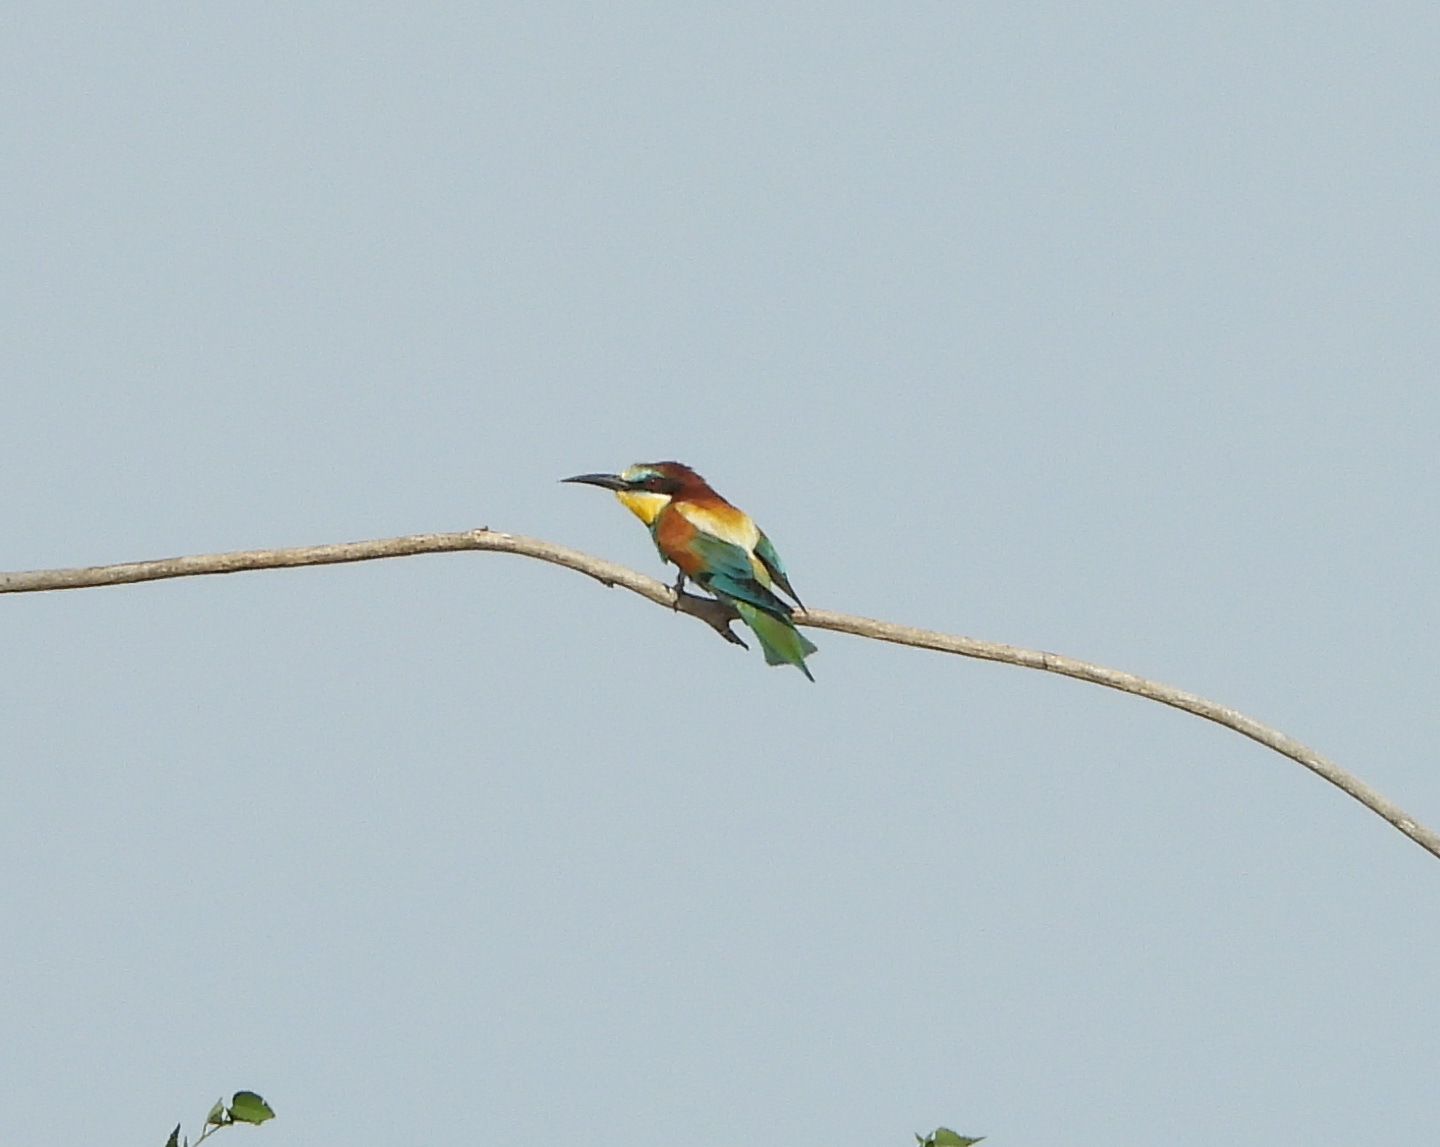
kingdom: Animalia
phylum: Chordata
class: Aves
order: Coraciiformes
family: Meropidae
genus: Merops
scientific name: Merops apiaster
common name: European bee-eater
